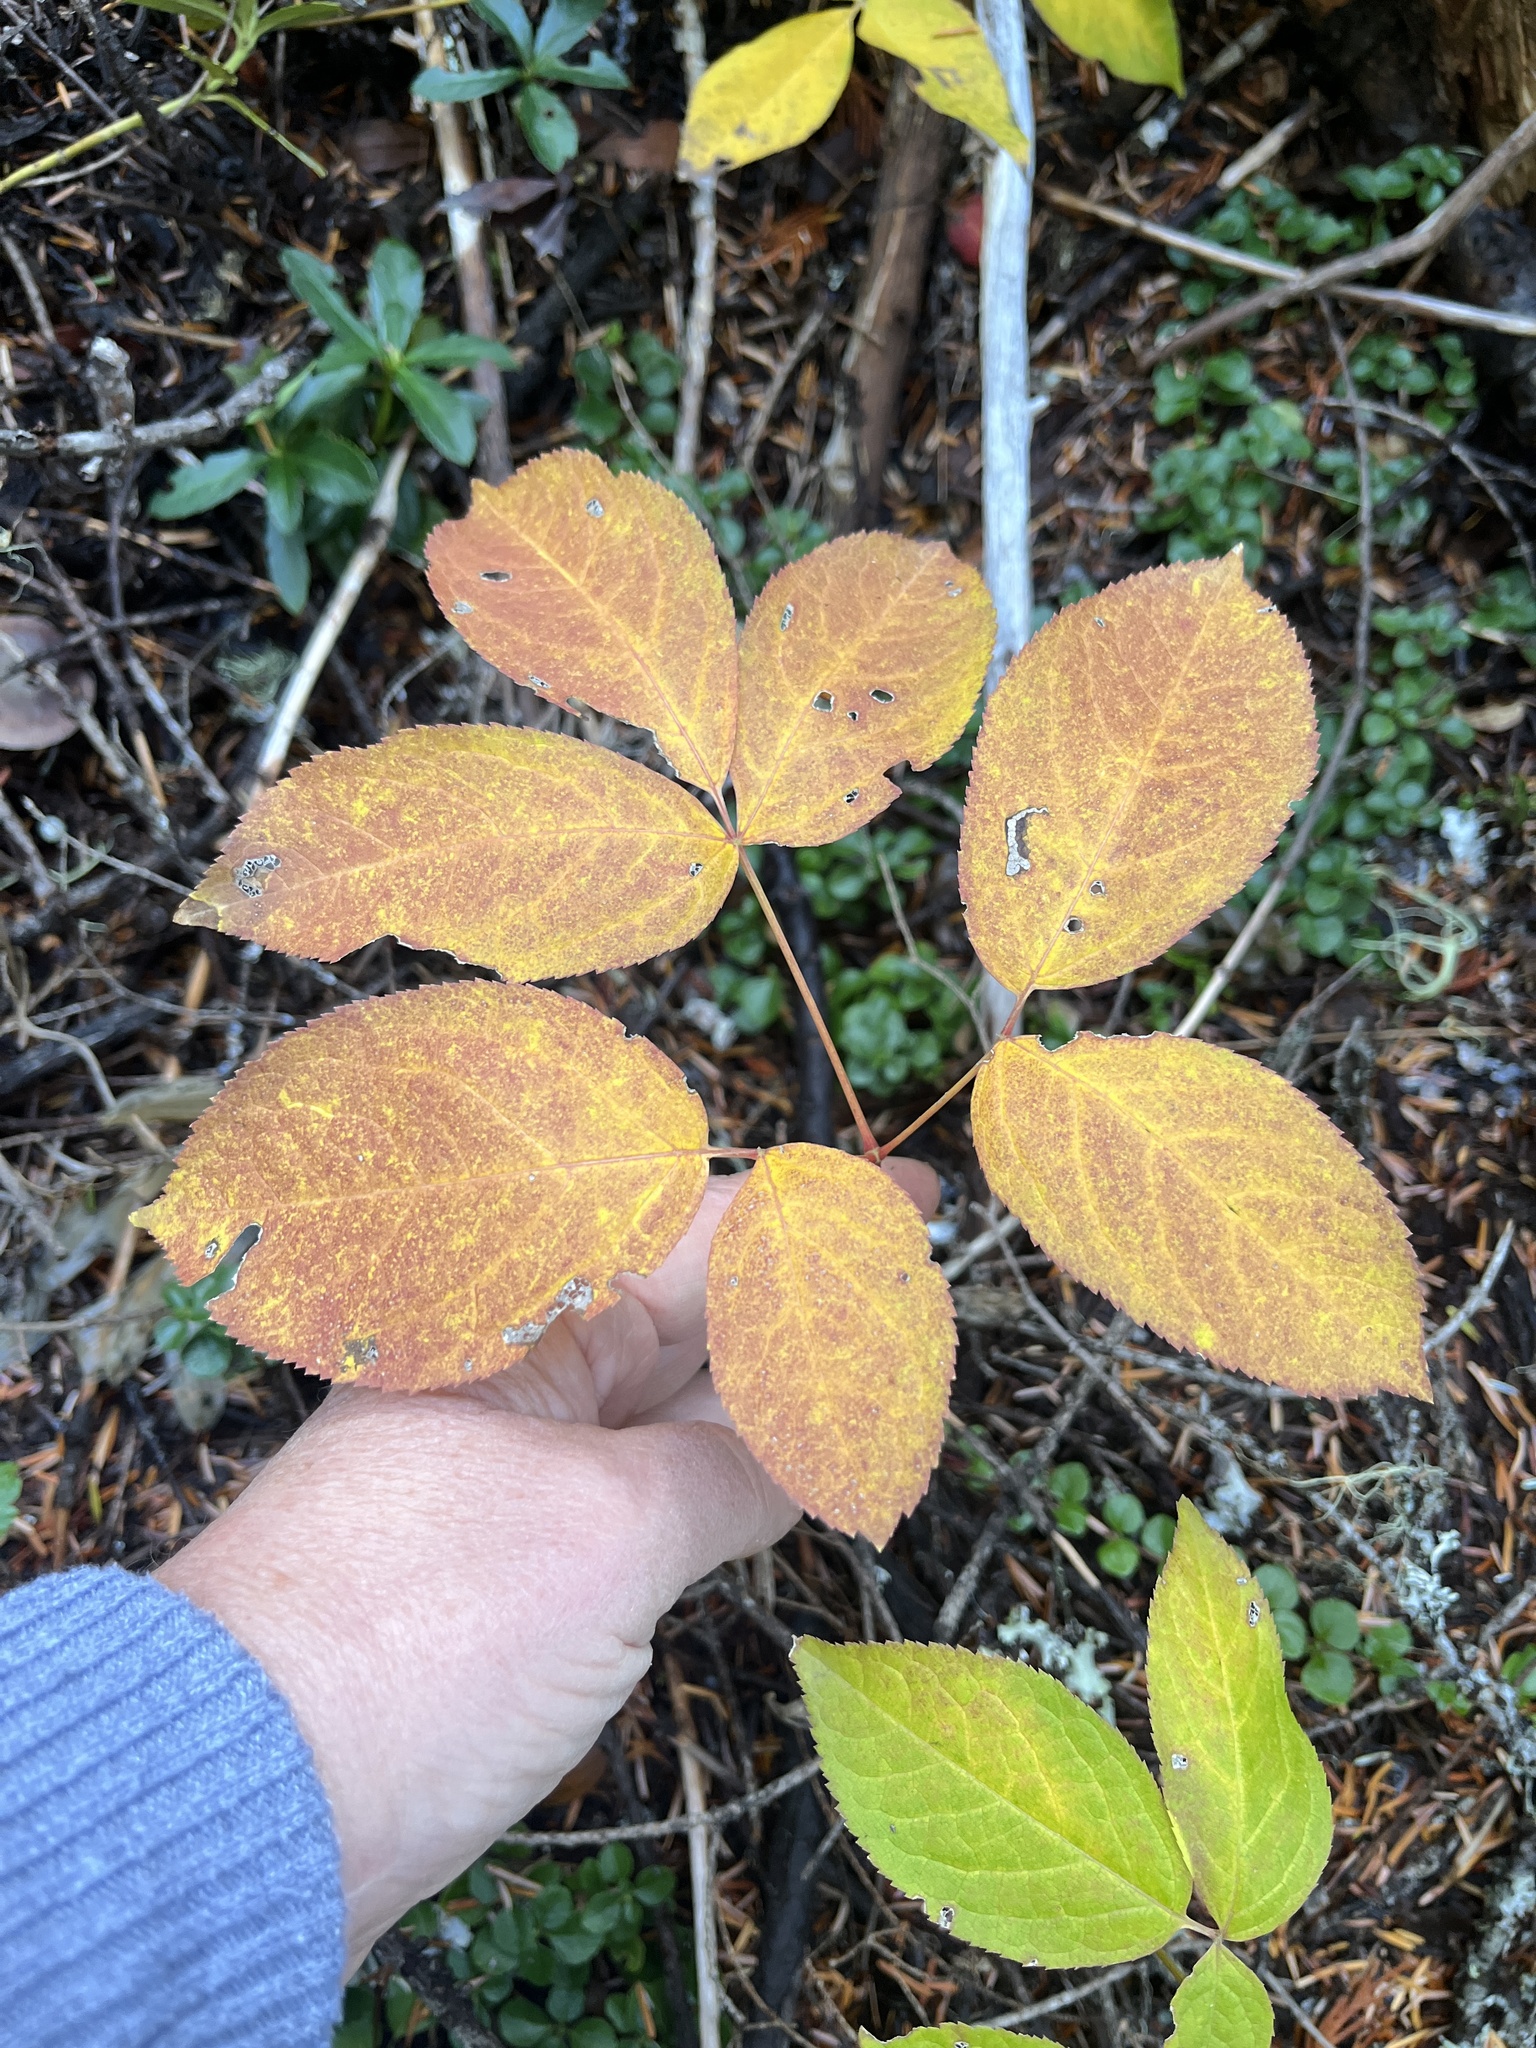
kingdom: Plantae
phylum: Tracheophyta
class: Magnoliopsida
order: Apiales
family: Araliaceae
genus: Aralia
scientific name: Aralia nudicaulis
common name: Wild sarsaparilla
